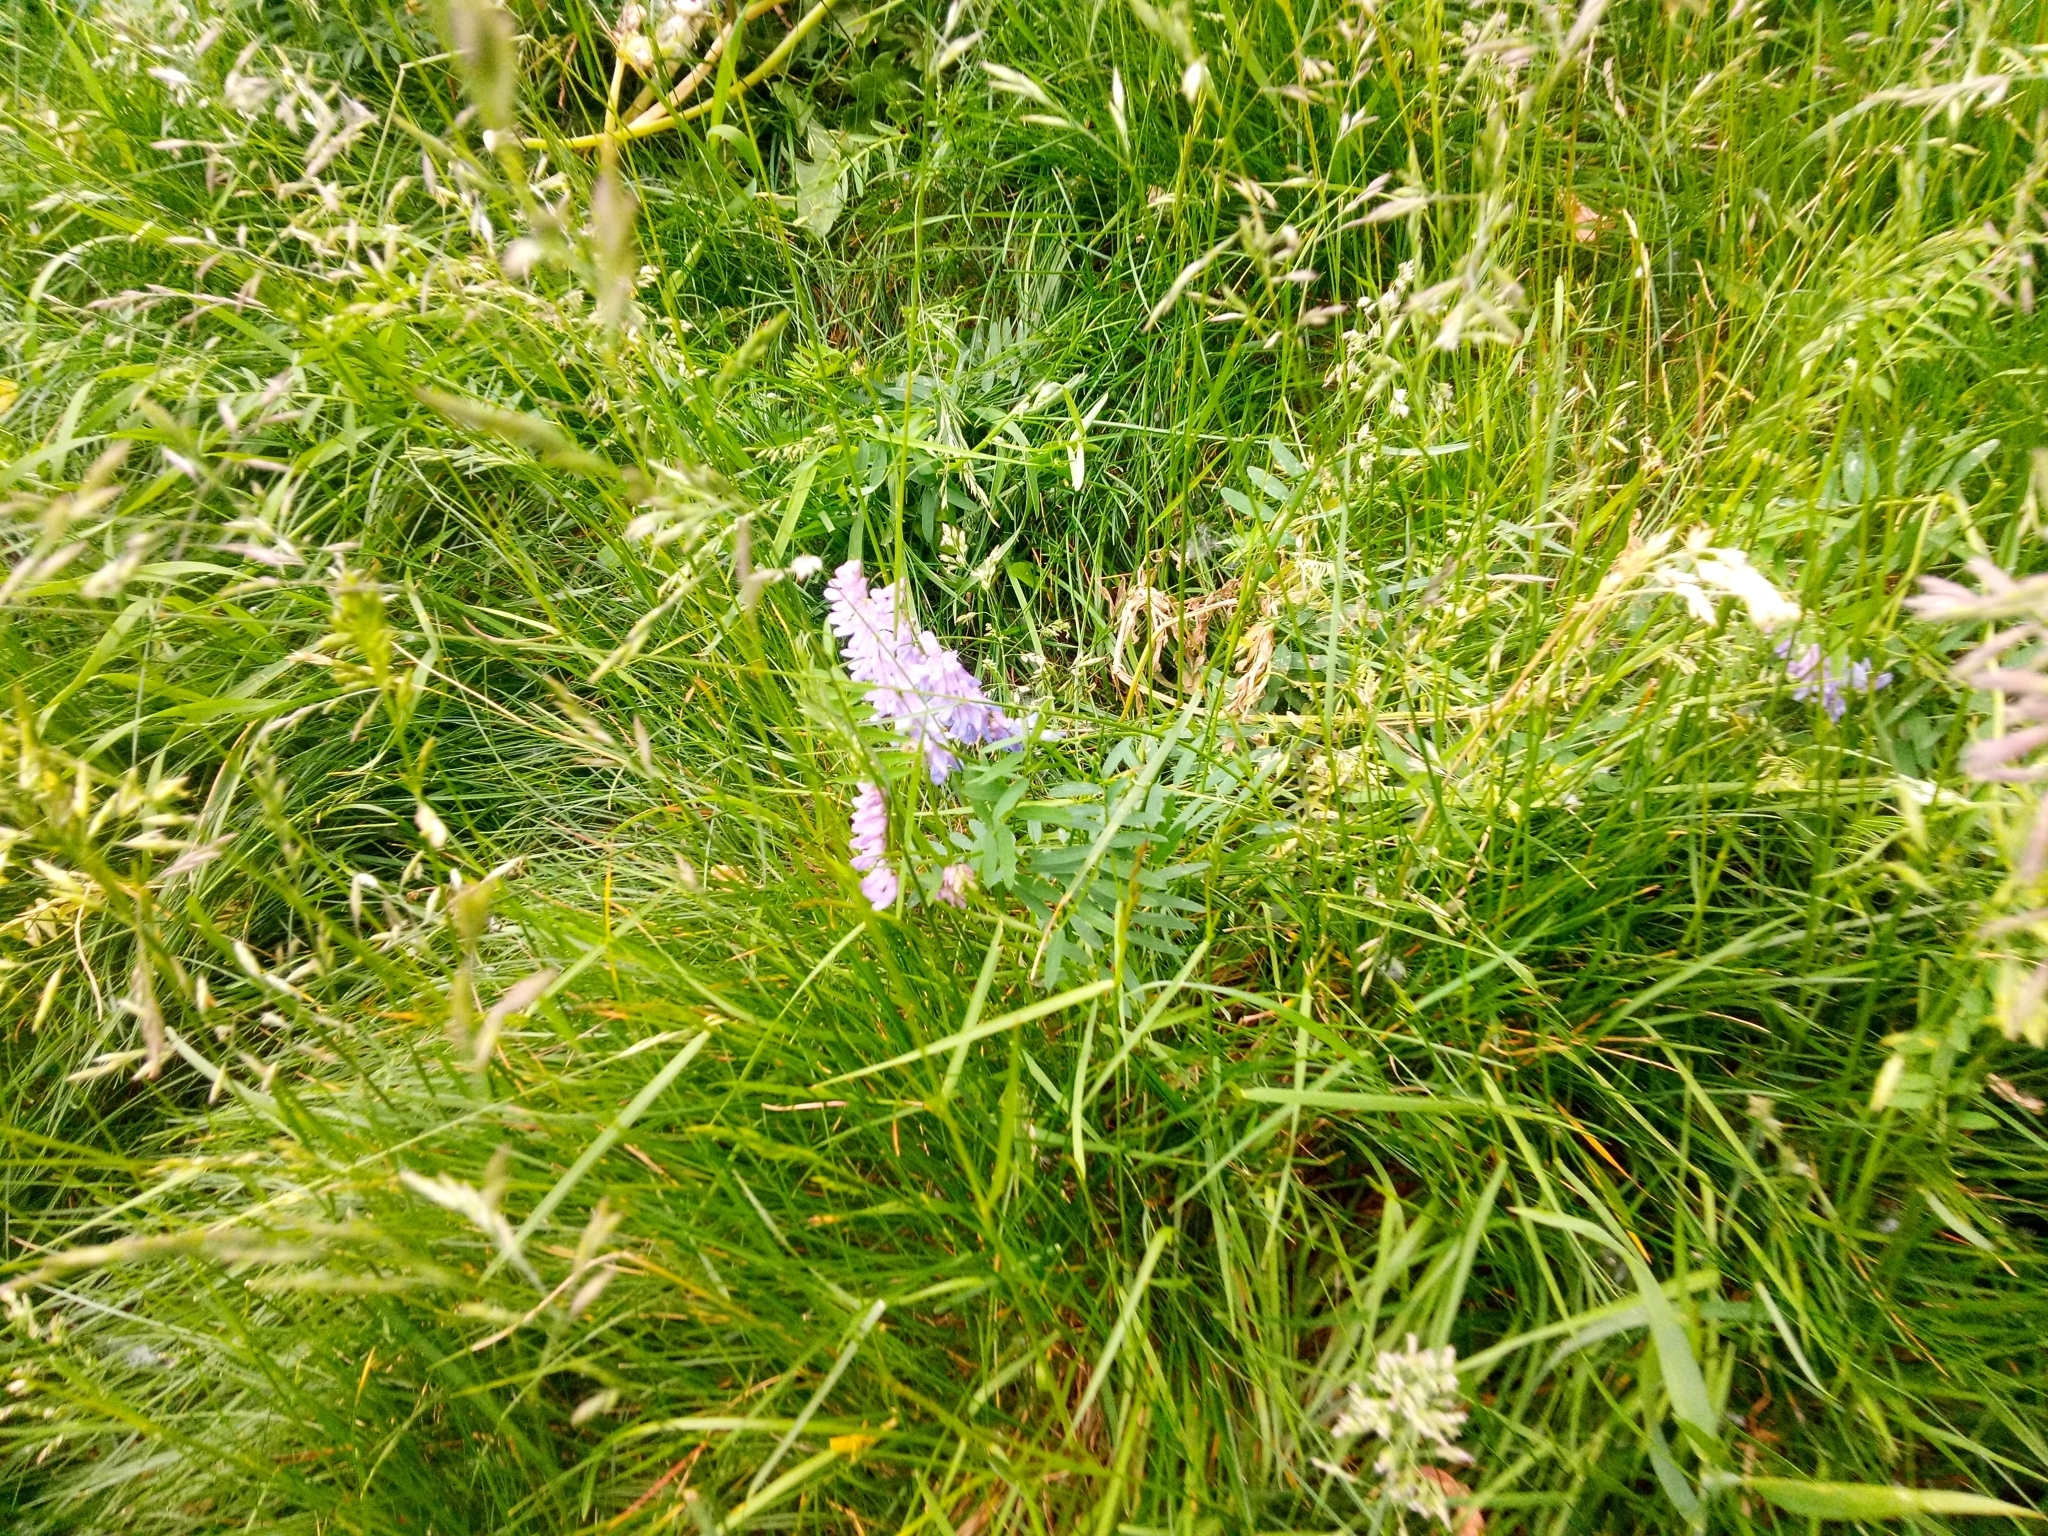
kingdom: Plantae
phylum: Tracheophyta
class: Magnoliopsida
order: Fabales
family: Fabaceae
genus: Vicia
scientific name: Vicia cracca
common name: Bird vetch
